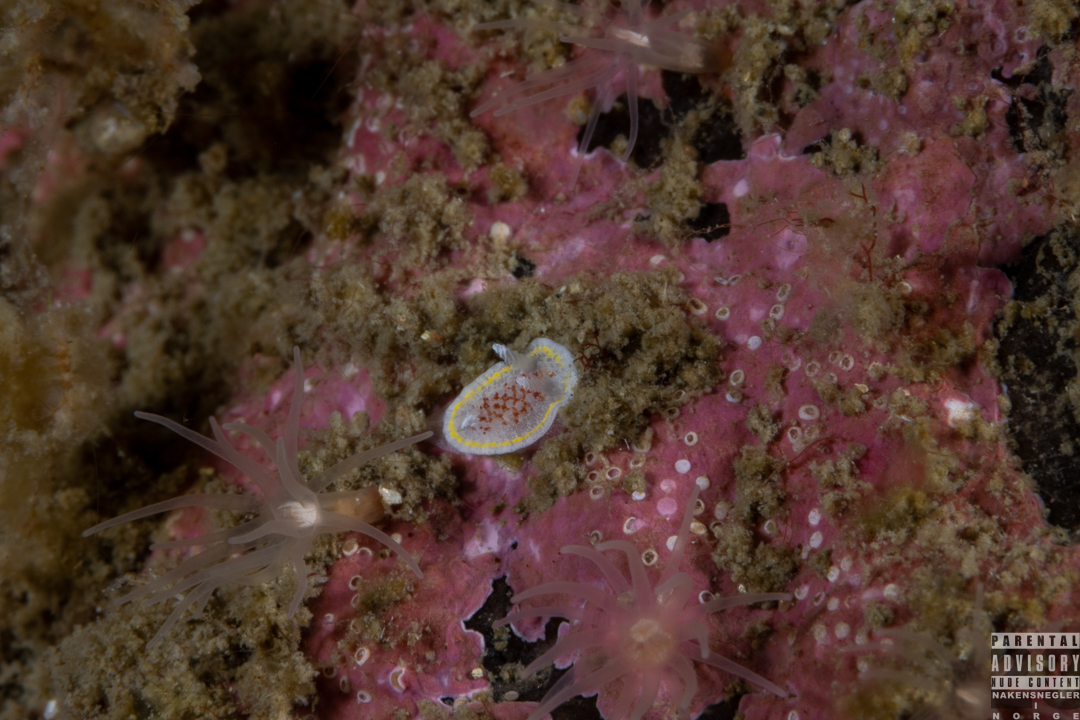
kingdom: Animalia
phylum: Mollusca
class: Gastropoda
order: Nudibranchia
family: Calycidorididae
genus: Diaphorodoris
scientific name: Diaphorodoris luteocincta
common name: Fried egg nudibranch
